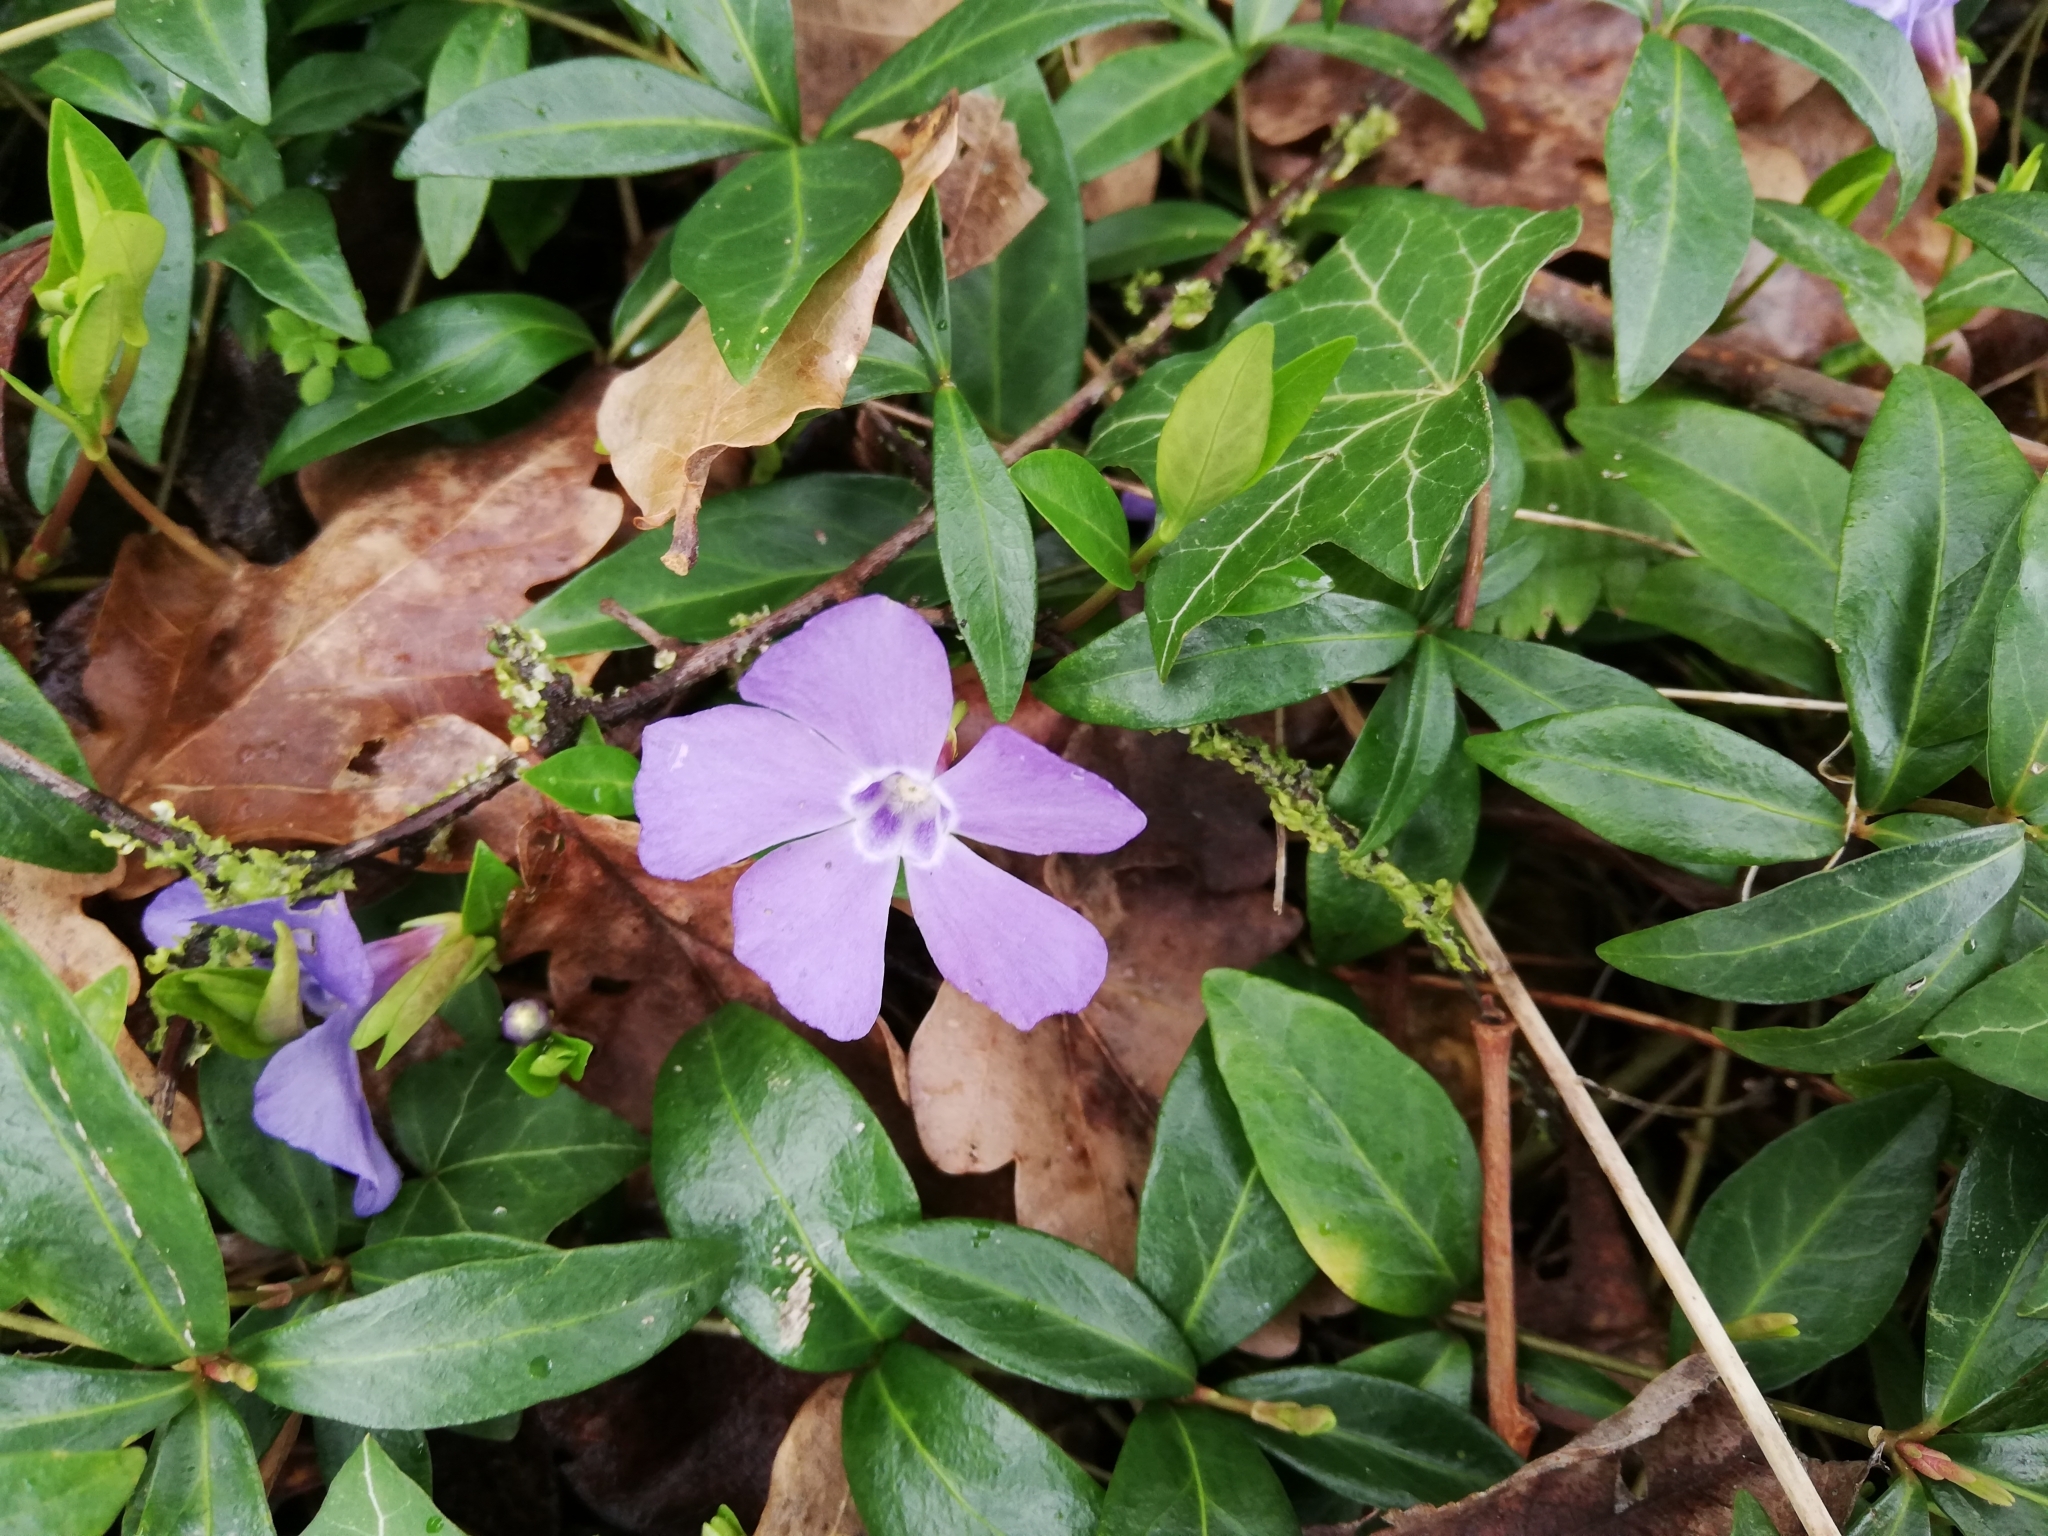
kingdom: Plantae
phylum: Tracheophyta
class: Magnoliopsida
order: Gentianales
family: Apocynaceae
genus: Vinca
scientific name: Vinca minor
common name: Lesser periwinkle
